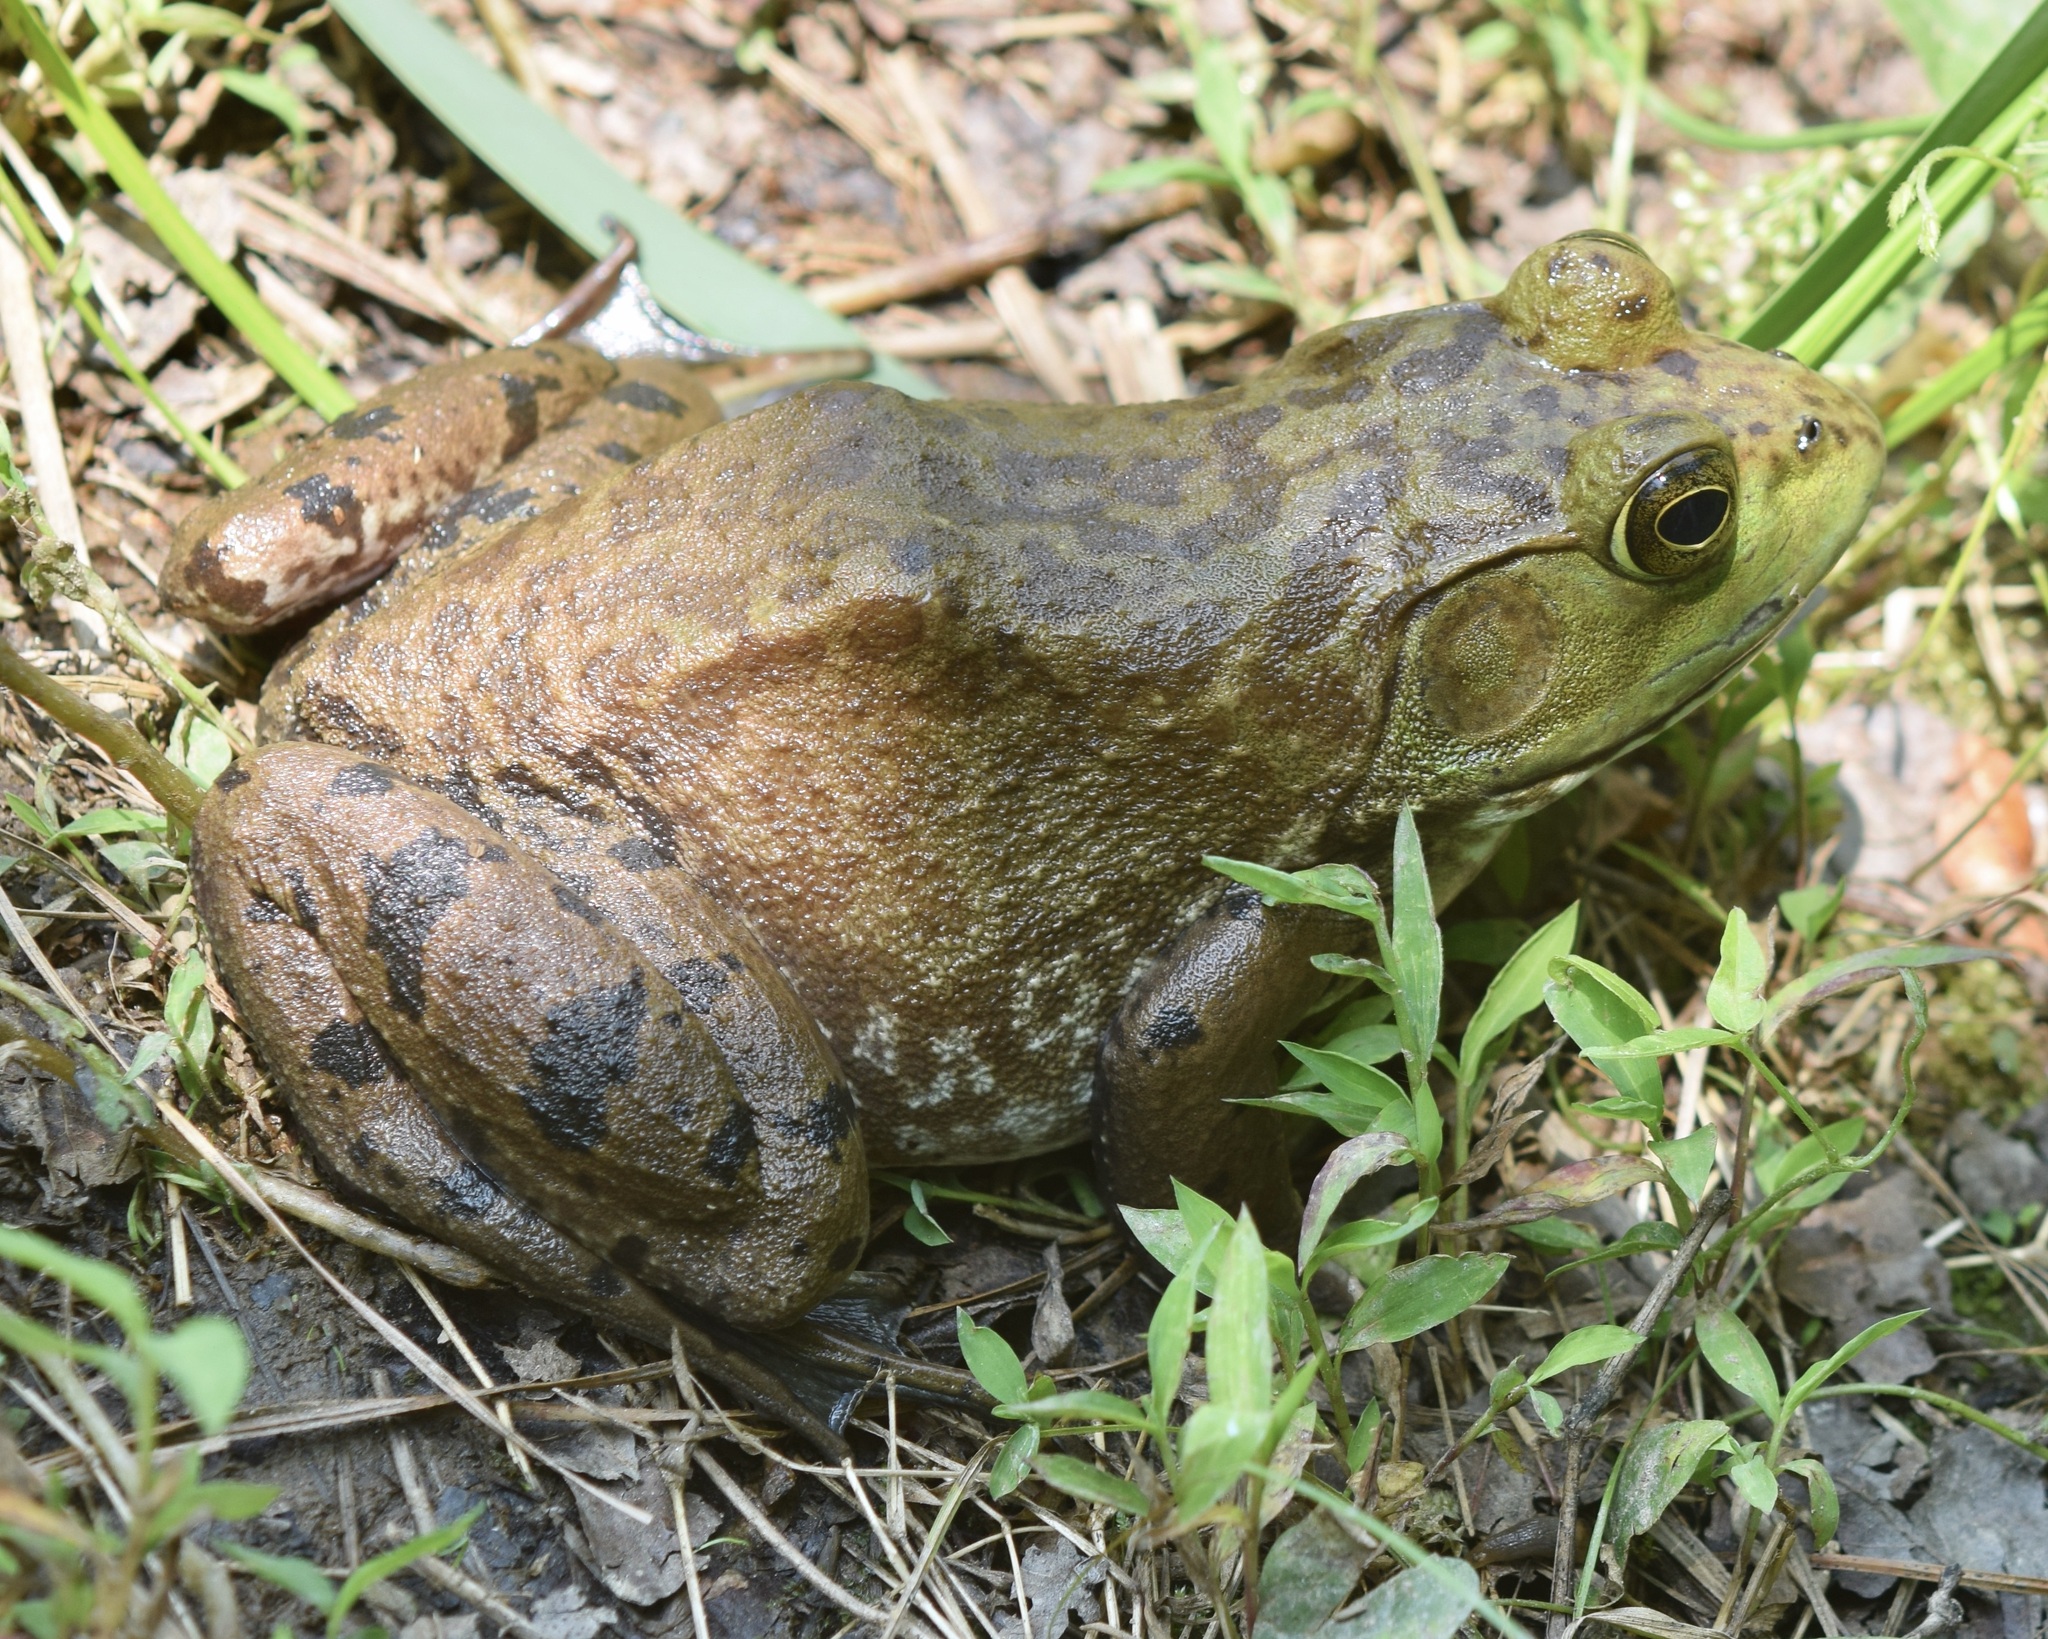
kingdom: Animalia
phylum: Chordata
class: Amphibia
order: Anura
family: Ranidae
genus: Lithobates
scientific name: Lithobates catesbeianus
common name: American bullfrog
